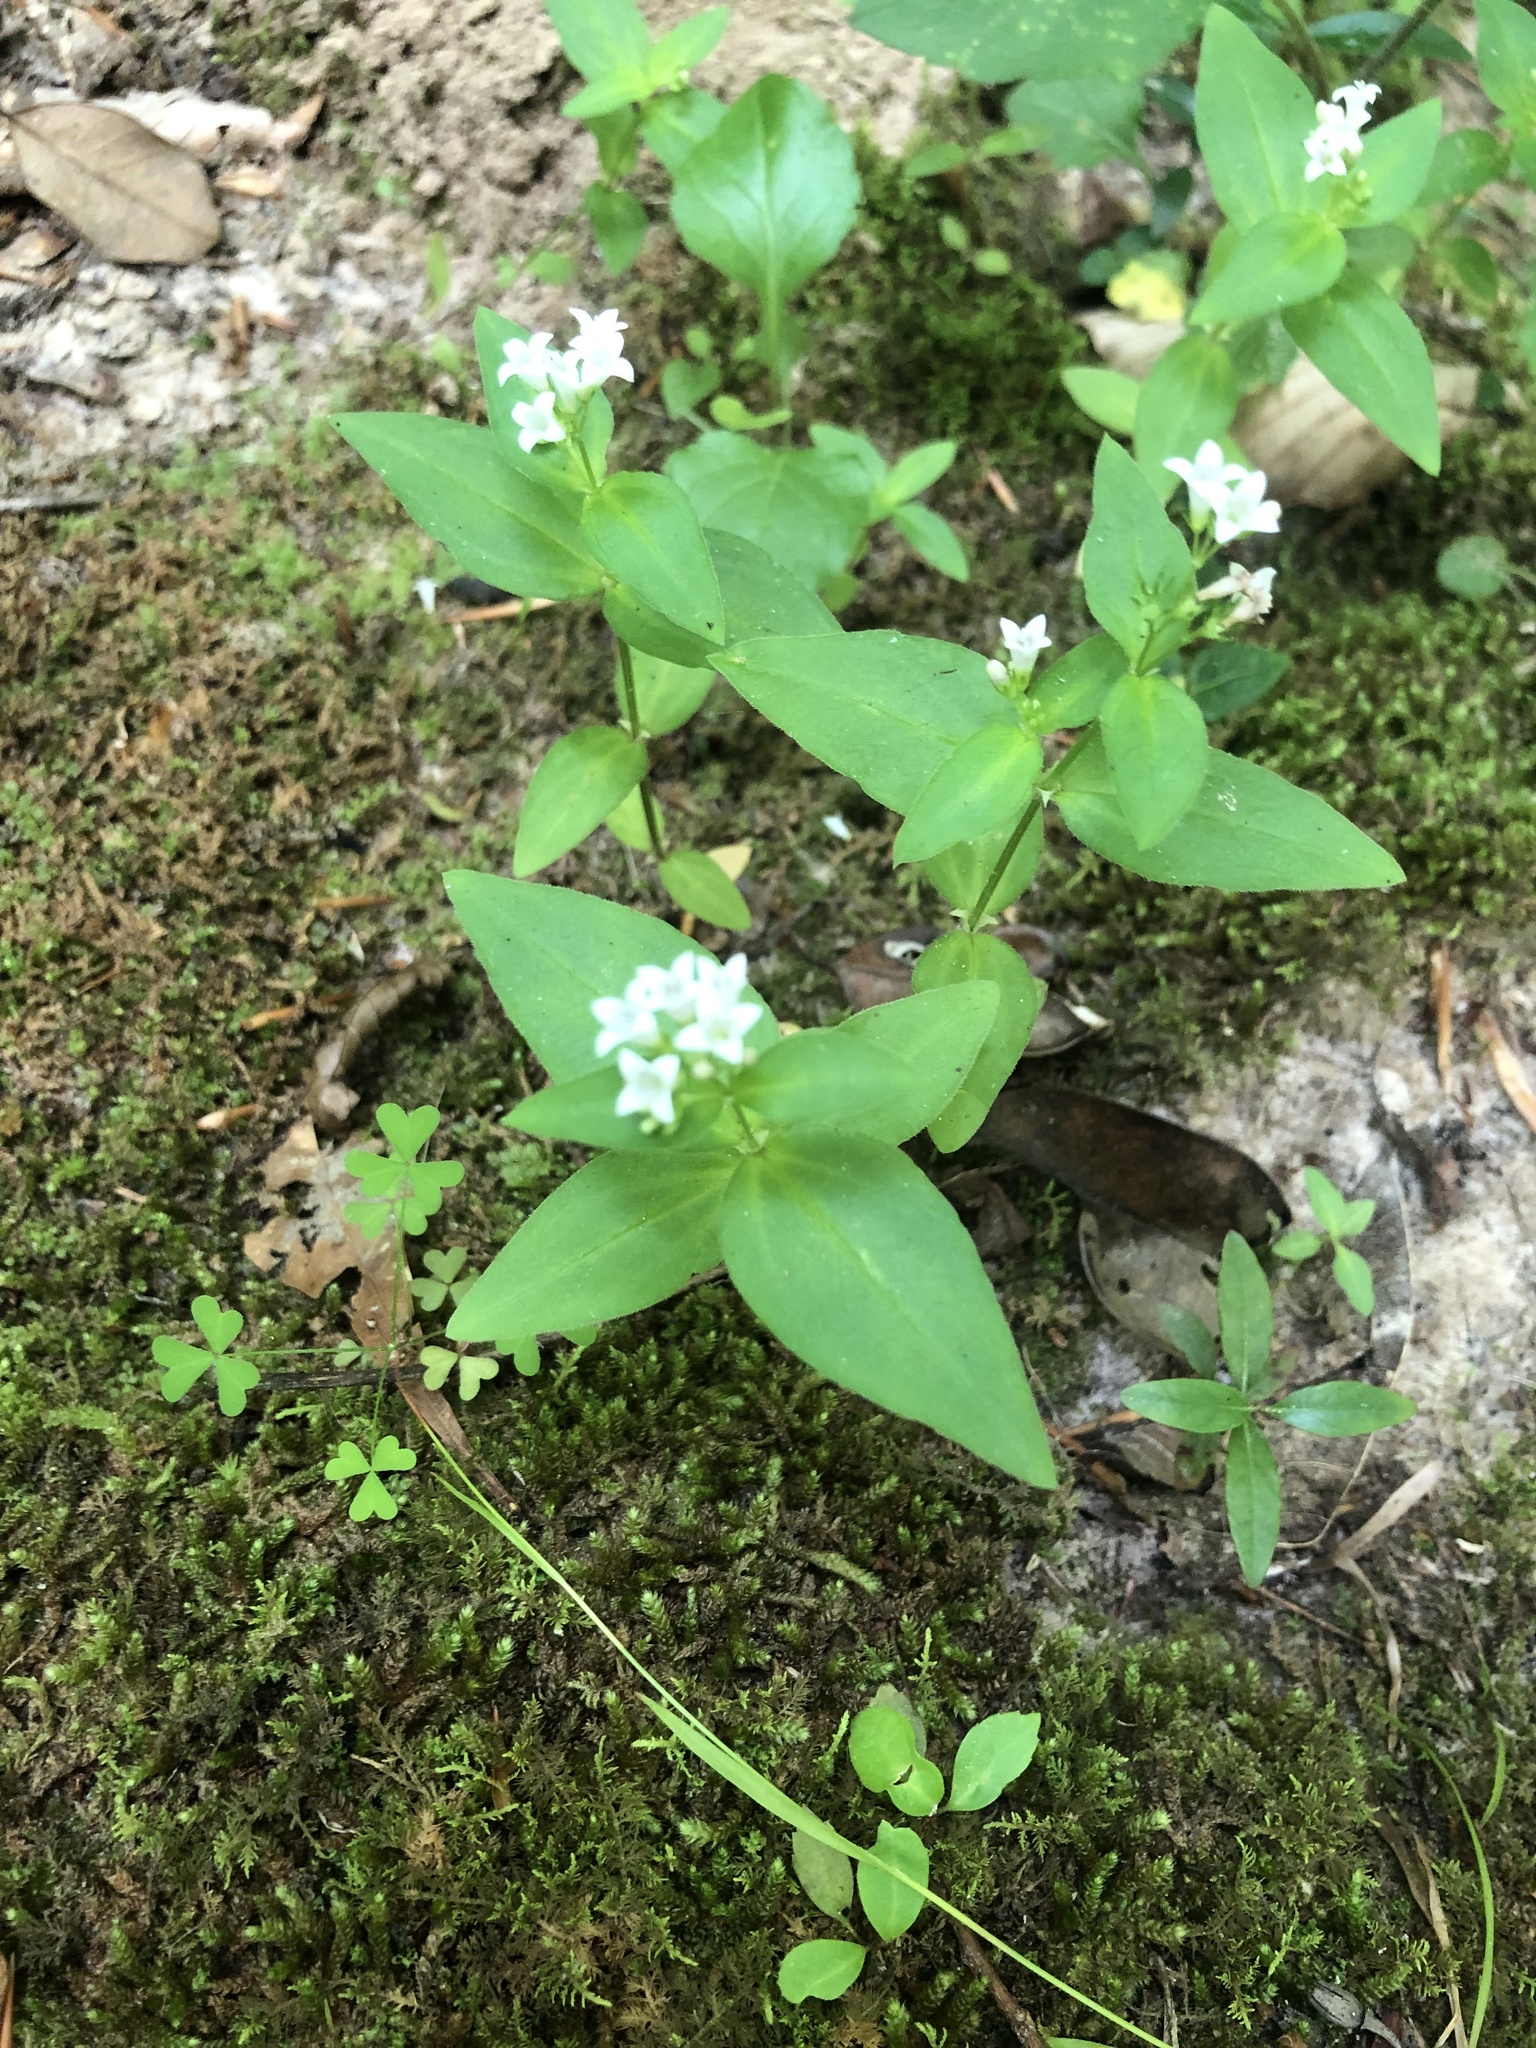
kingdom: Plantae
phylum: Tracheophyta
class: Magnoliopsida
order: Gentianales
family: Rubiaceae
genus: Houstonia
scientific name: Houstonia purpurea
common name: Summer bluet
